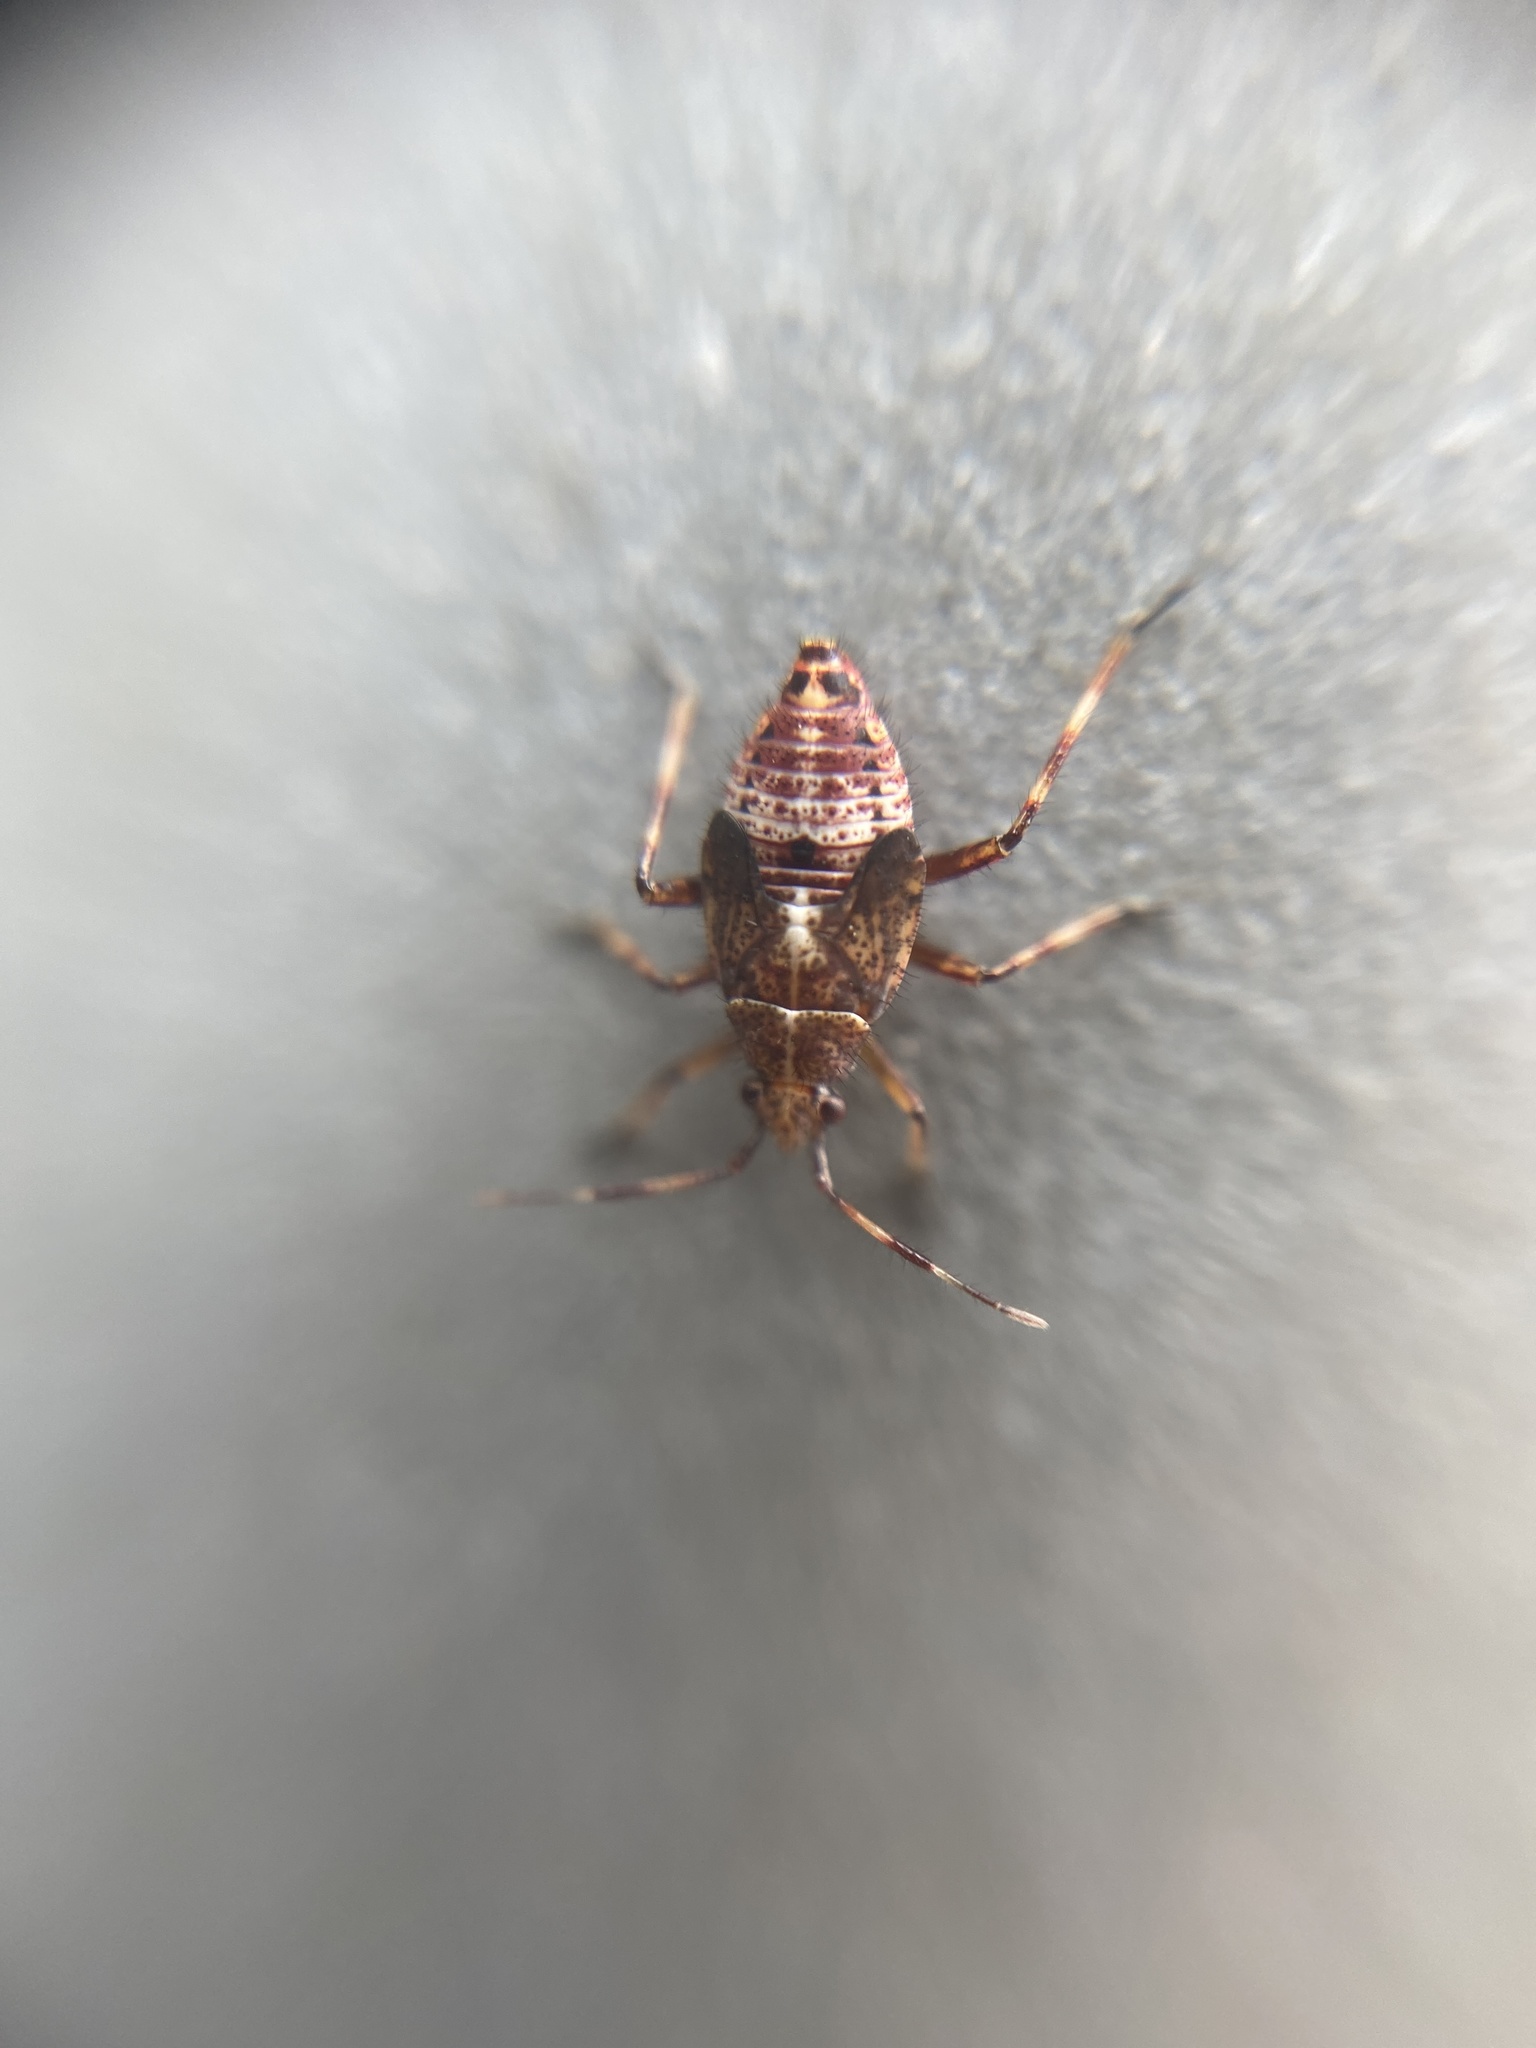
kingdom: Animalia
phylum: Arthropoda
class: Insecta
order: Hemiptera
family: Miridae
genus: Deraeocoris
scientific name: Deraeocoris flavilinea
